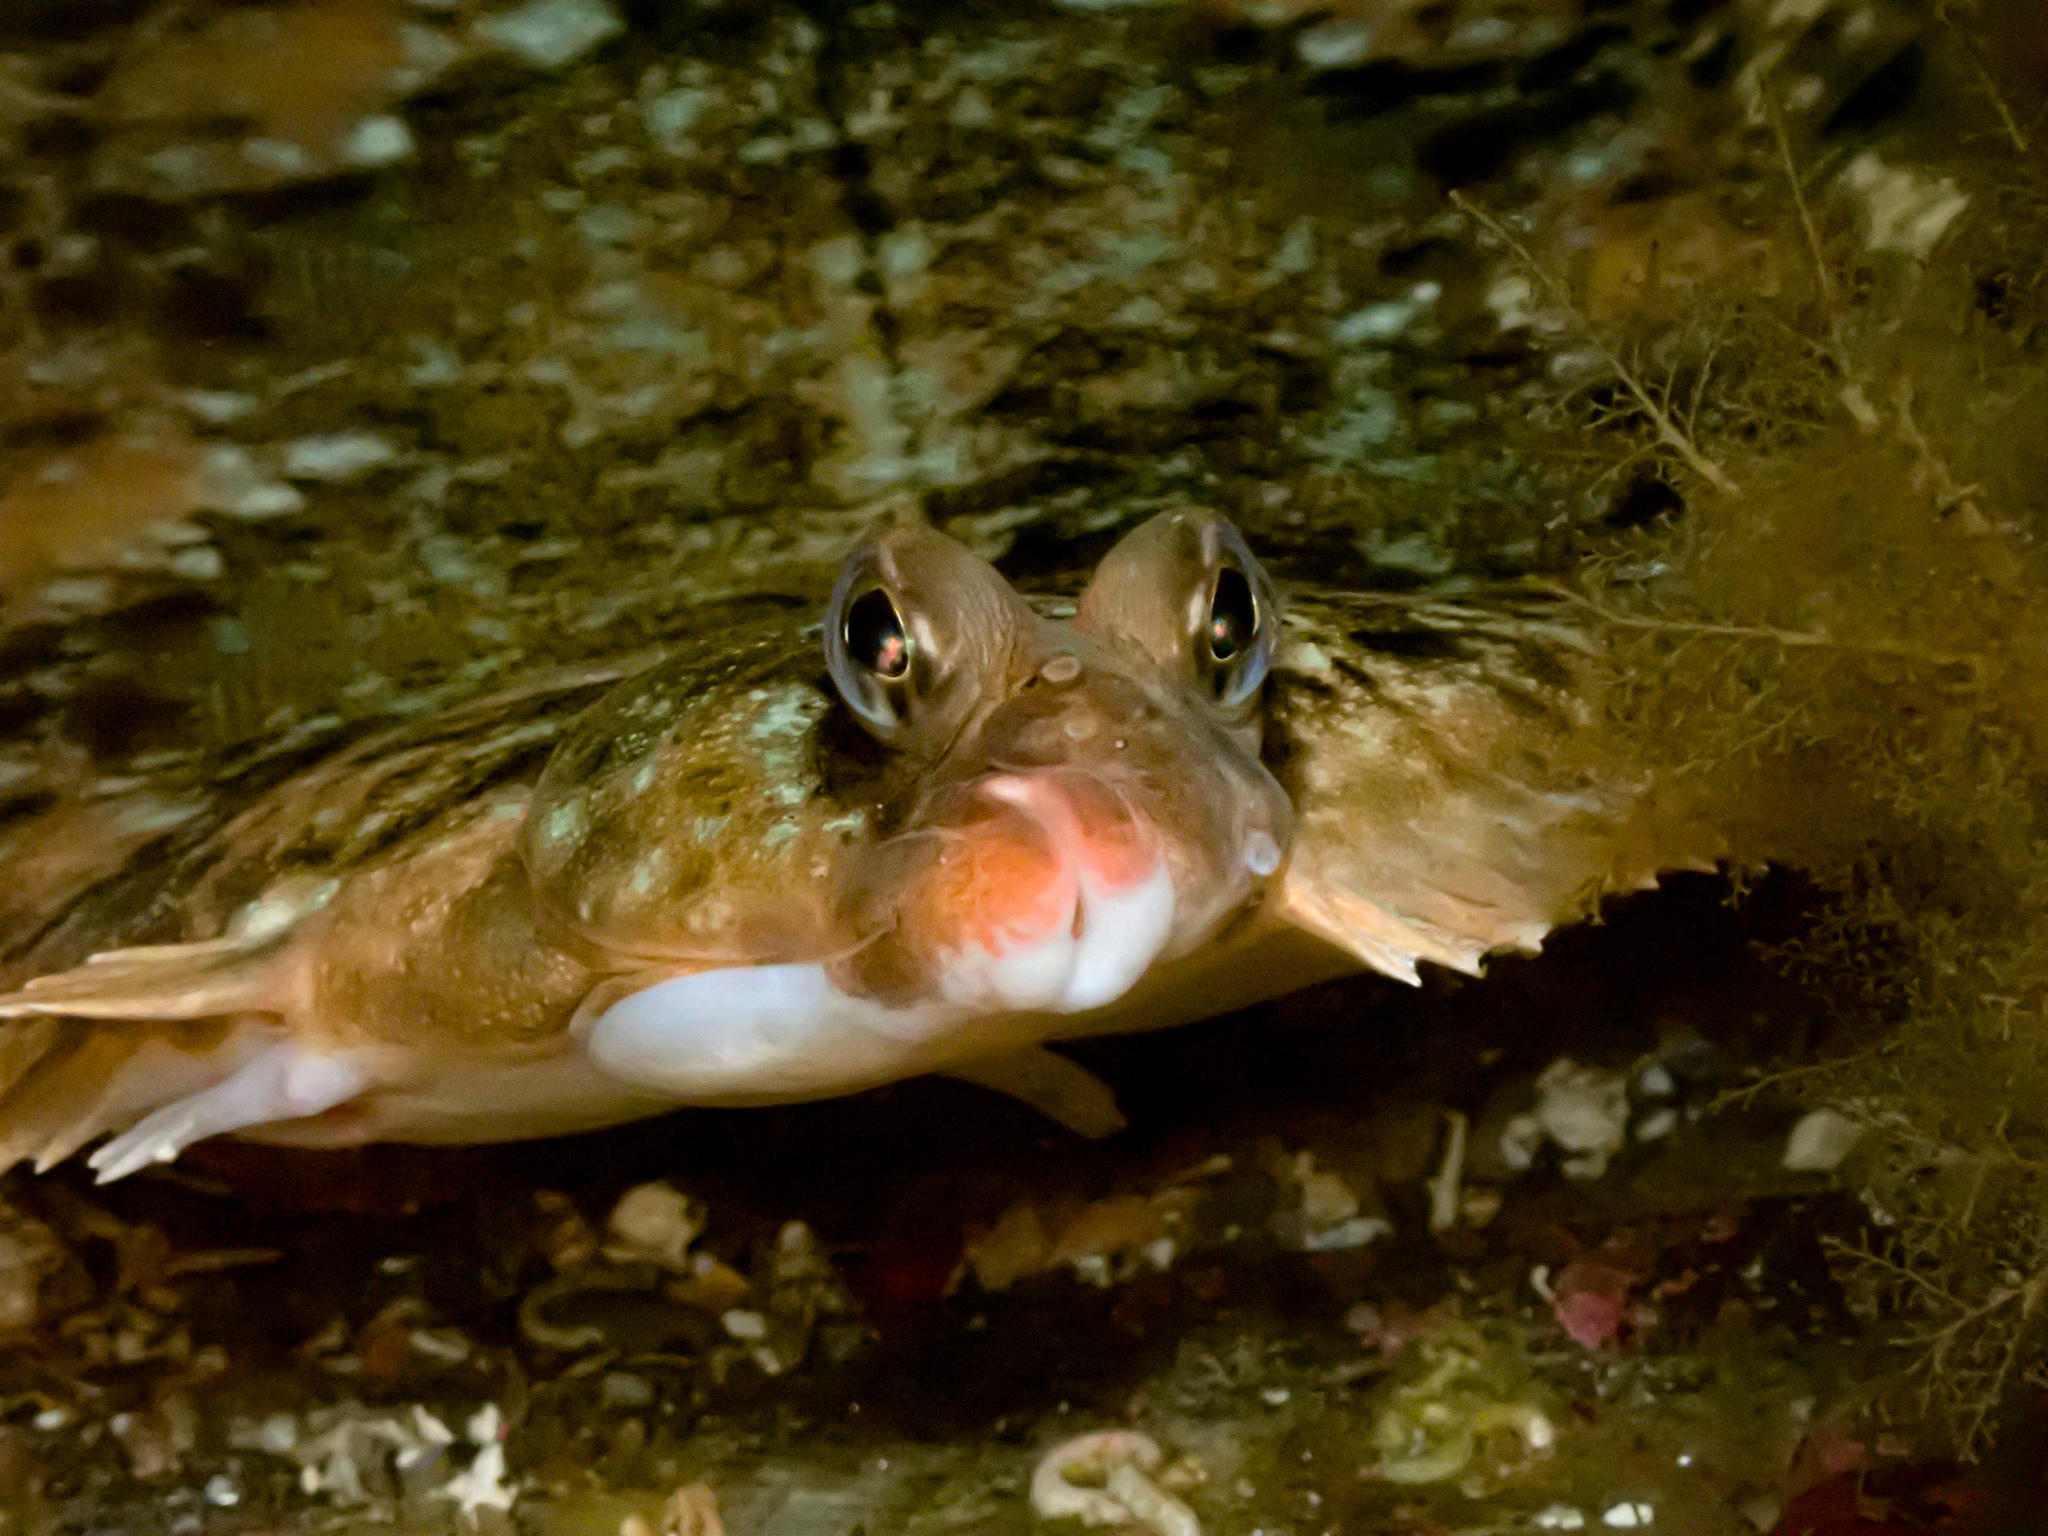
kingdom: Animalia
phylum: Chordata
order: Pleuronectiformes
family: Pleuronectidae
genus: Microstomus
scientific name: Microstomus kitt
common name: Lemon sole
